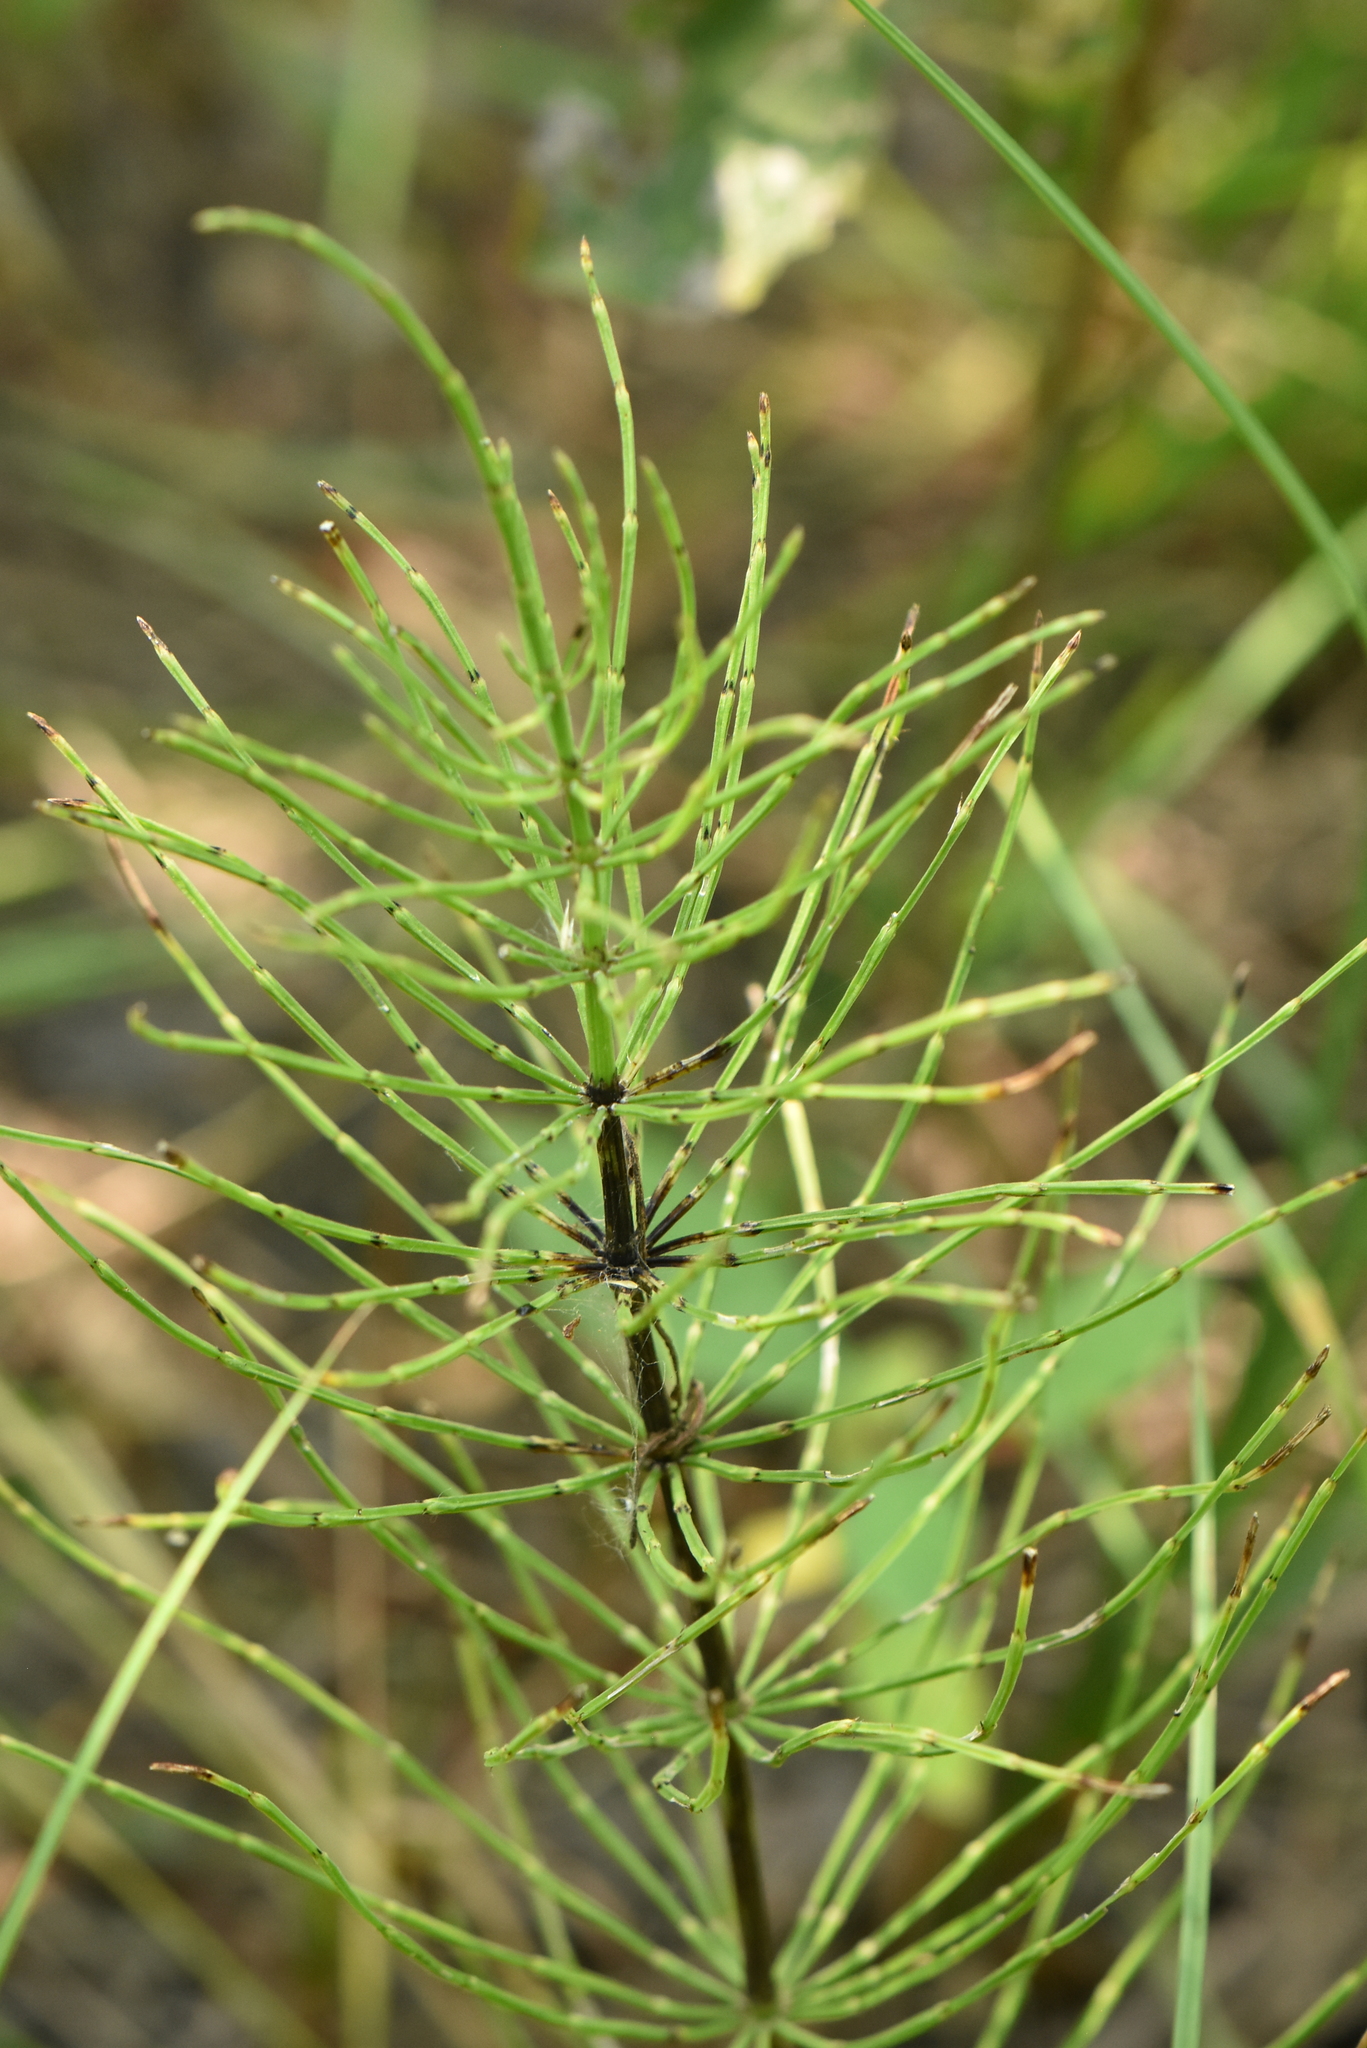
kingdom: Plantae
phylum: Tracheophyta
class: Polypodiopsida
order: Equisetales
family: Equisetaceae
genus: Equisetum
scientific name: Equisetum arvense
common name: Field horsetail
